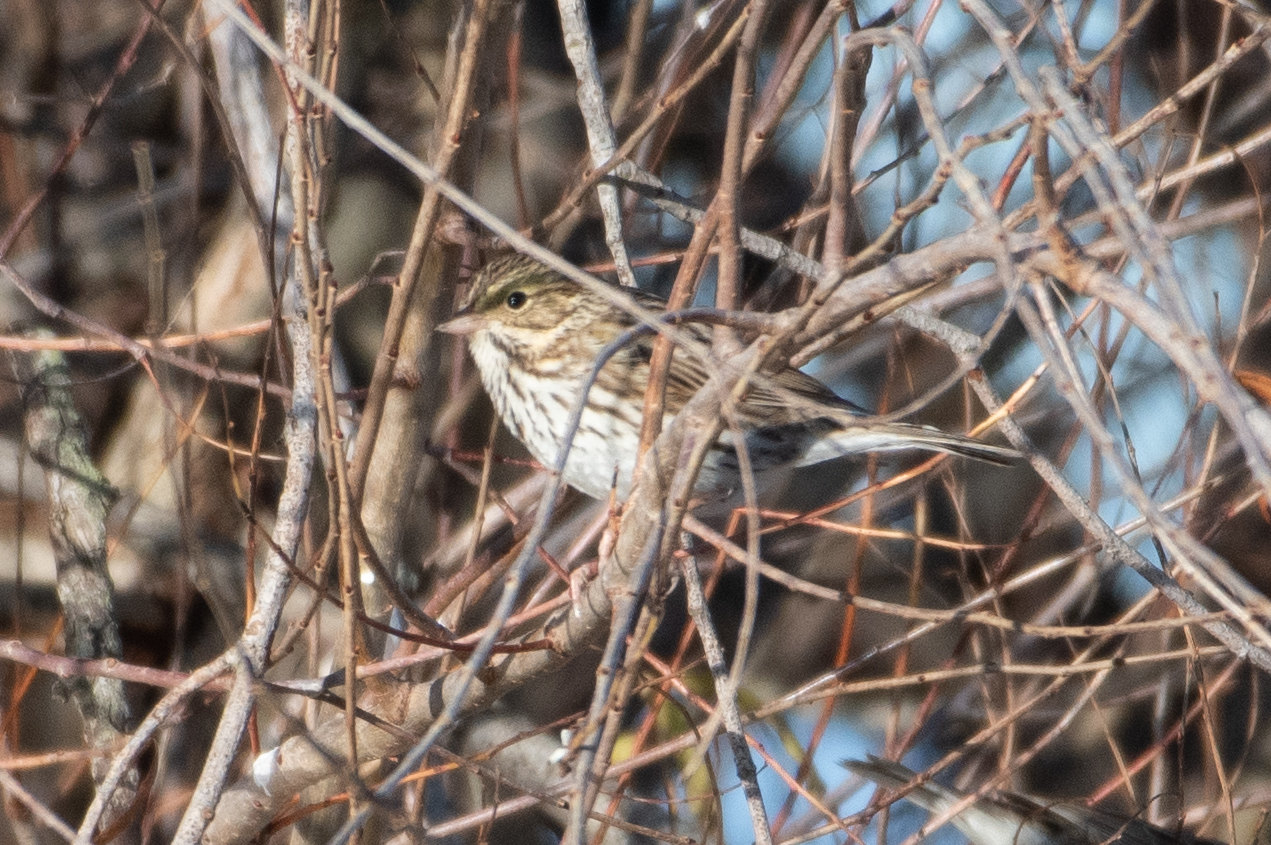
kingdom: Animalia
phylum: Chordata
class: Aves
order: Passeriformes
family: Passerellidae
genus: Passerculus
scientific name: Passerculus sandwichensis
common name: Savannah sparrow
